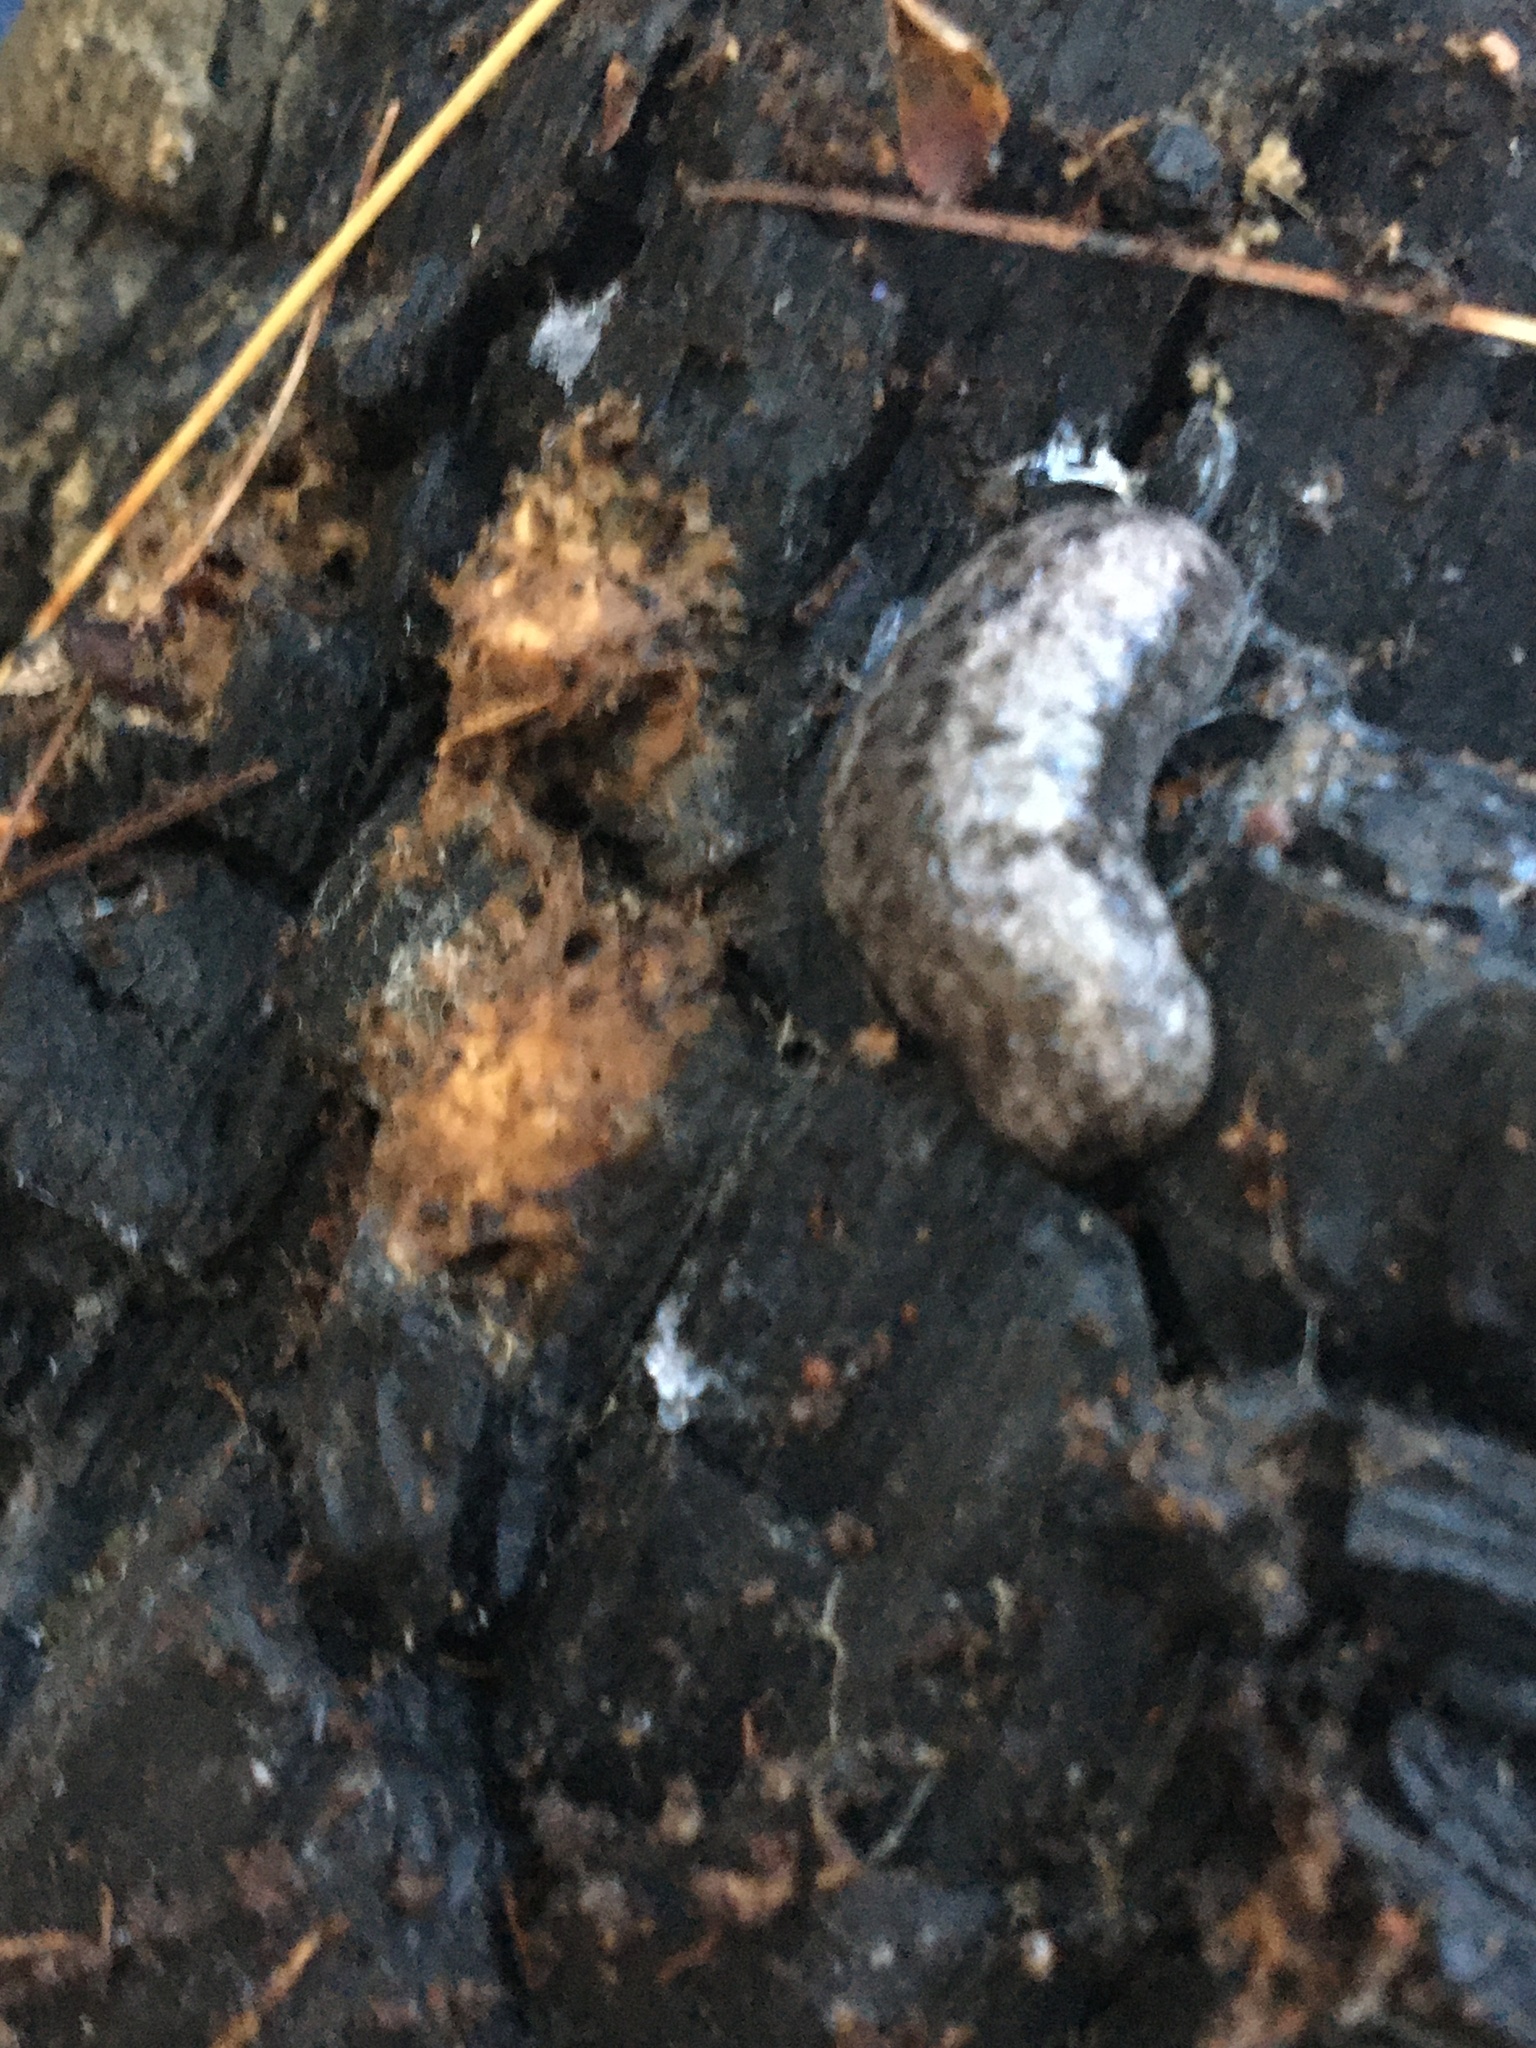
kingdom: Animalia
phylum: Mollusca
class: Gastropoda
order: Stylommatophora
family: Philomycidae
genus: Megapallifera
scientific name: Megapallifera mutabilis
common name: Changeable mantleslug
